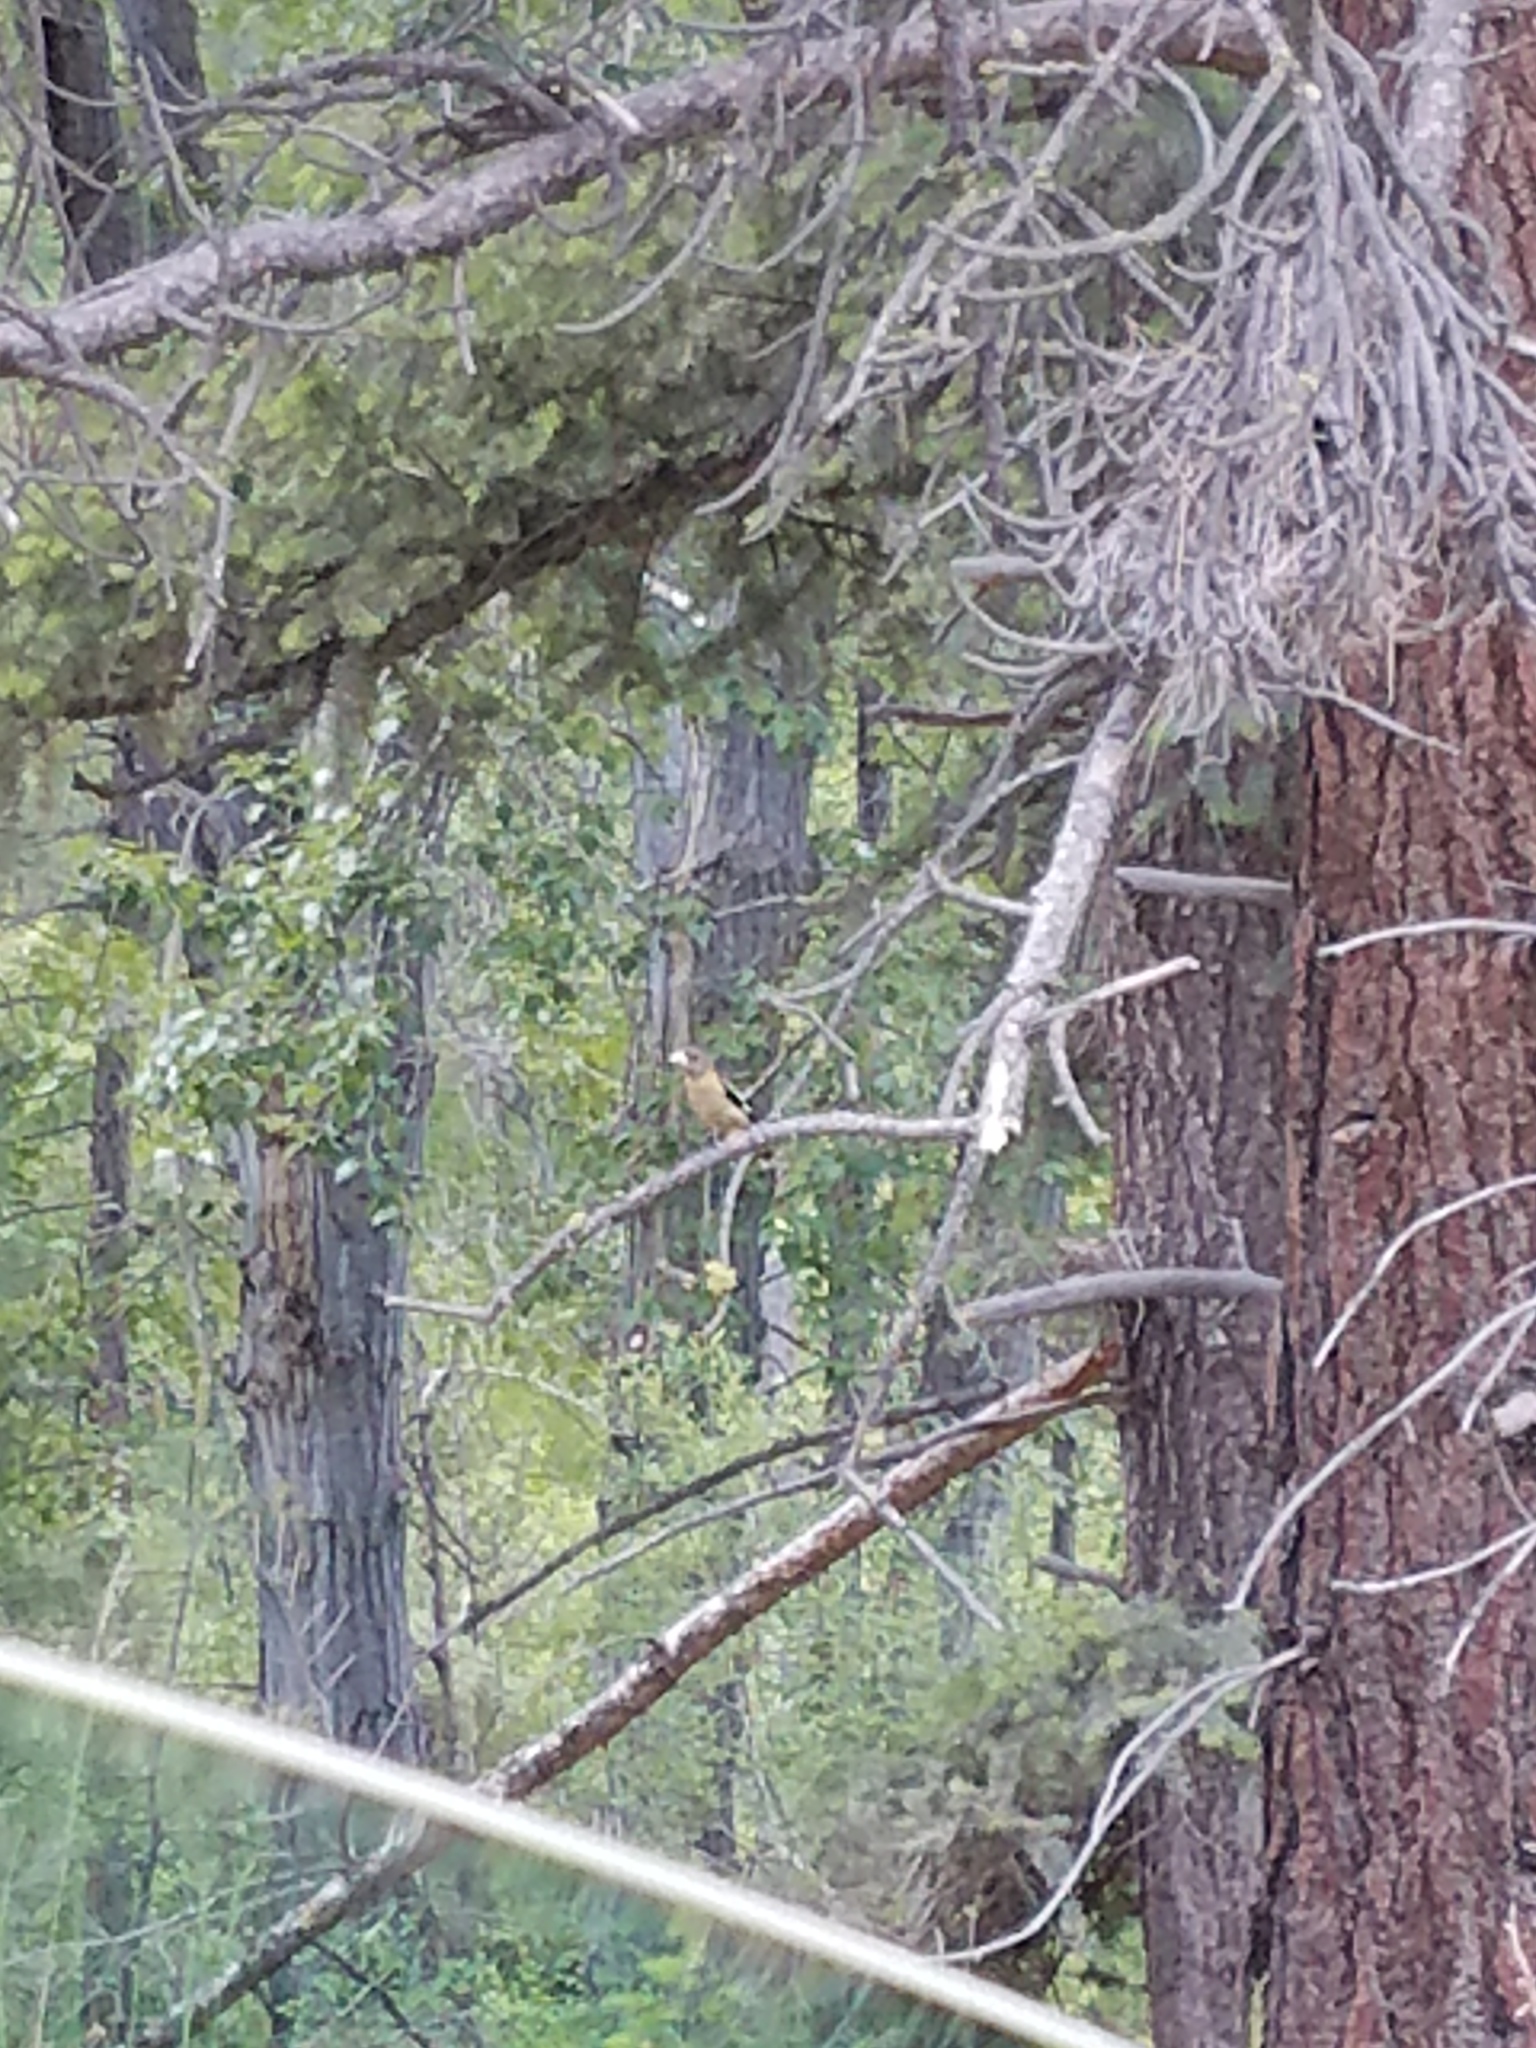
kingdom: Animalia
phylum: Chordata
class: Aves
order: Passeriformes
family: Fringillidae
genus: Hesperiphona
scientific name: Hesperiphona vespertina
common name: Evening grosbeak
